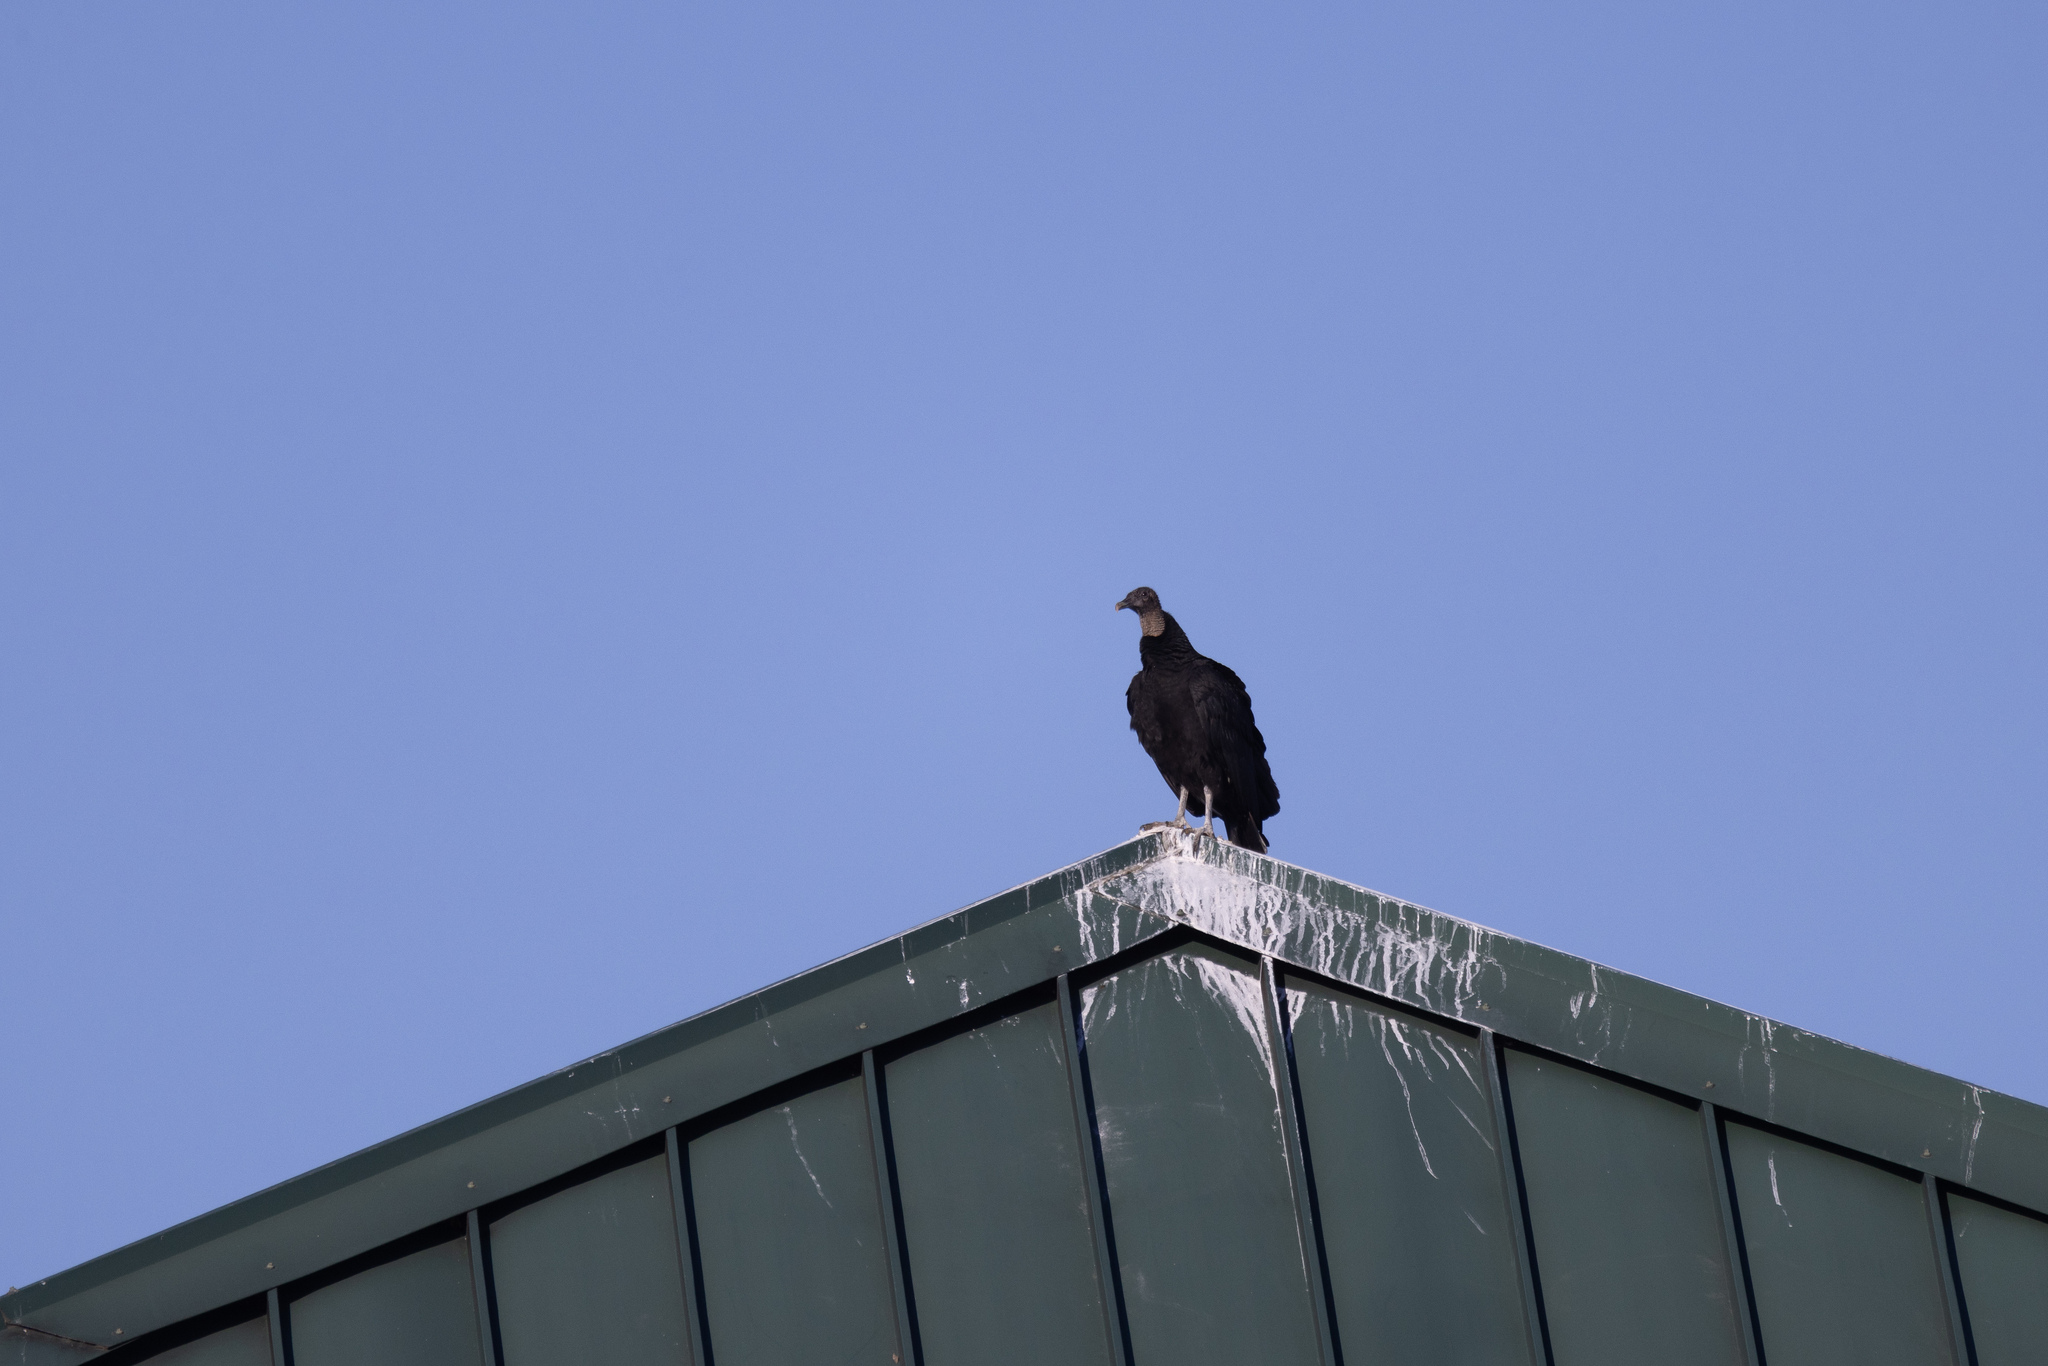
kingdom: Animalia
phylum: Chordata
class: Aves
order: Accipitriformes
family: Cathartidae
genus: Coragyps
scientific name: Coragyps atratus
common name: Black vulture
